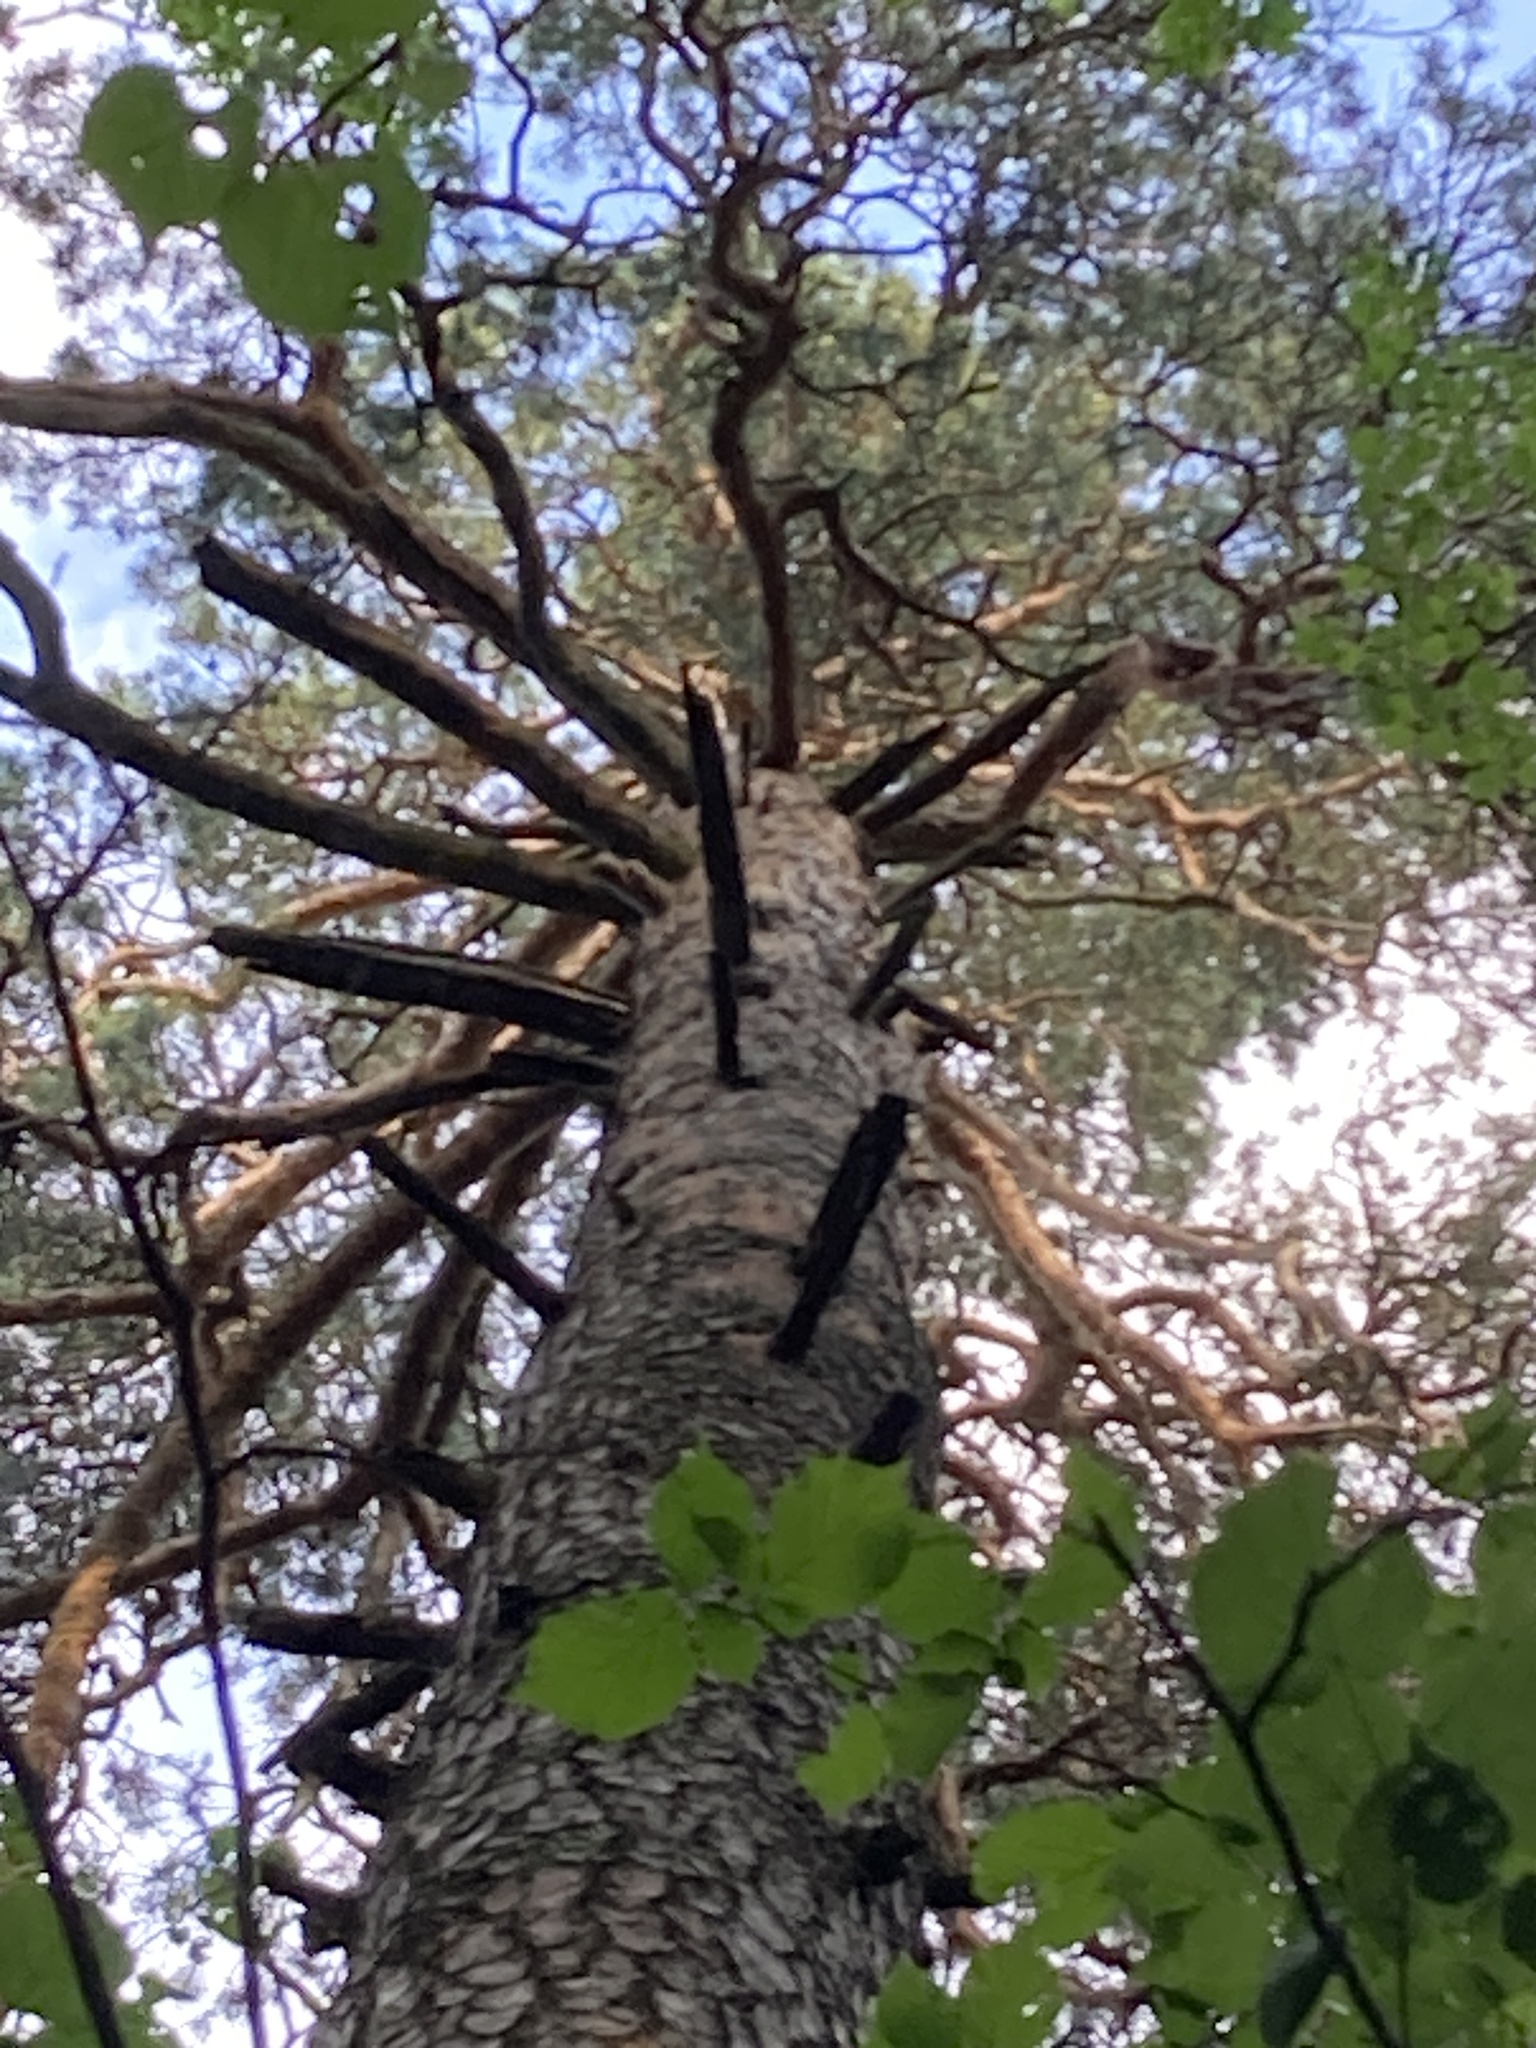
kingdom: Plantae
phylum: Tracheophyta
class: Pinopsida
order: Pinales
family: Pinaceae
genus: Pinus
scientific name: Pinus sylvestris
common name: Scots pine
